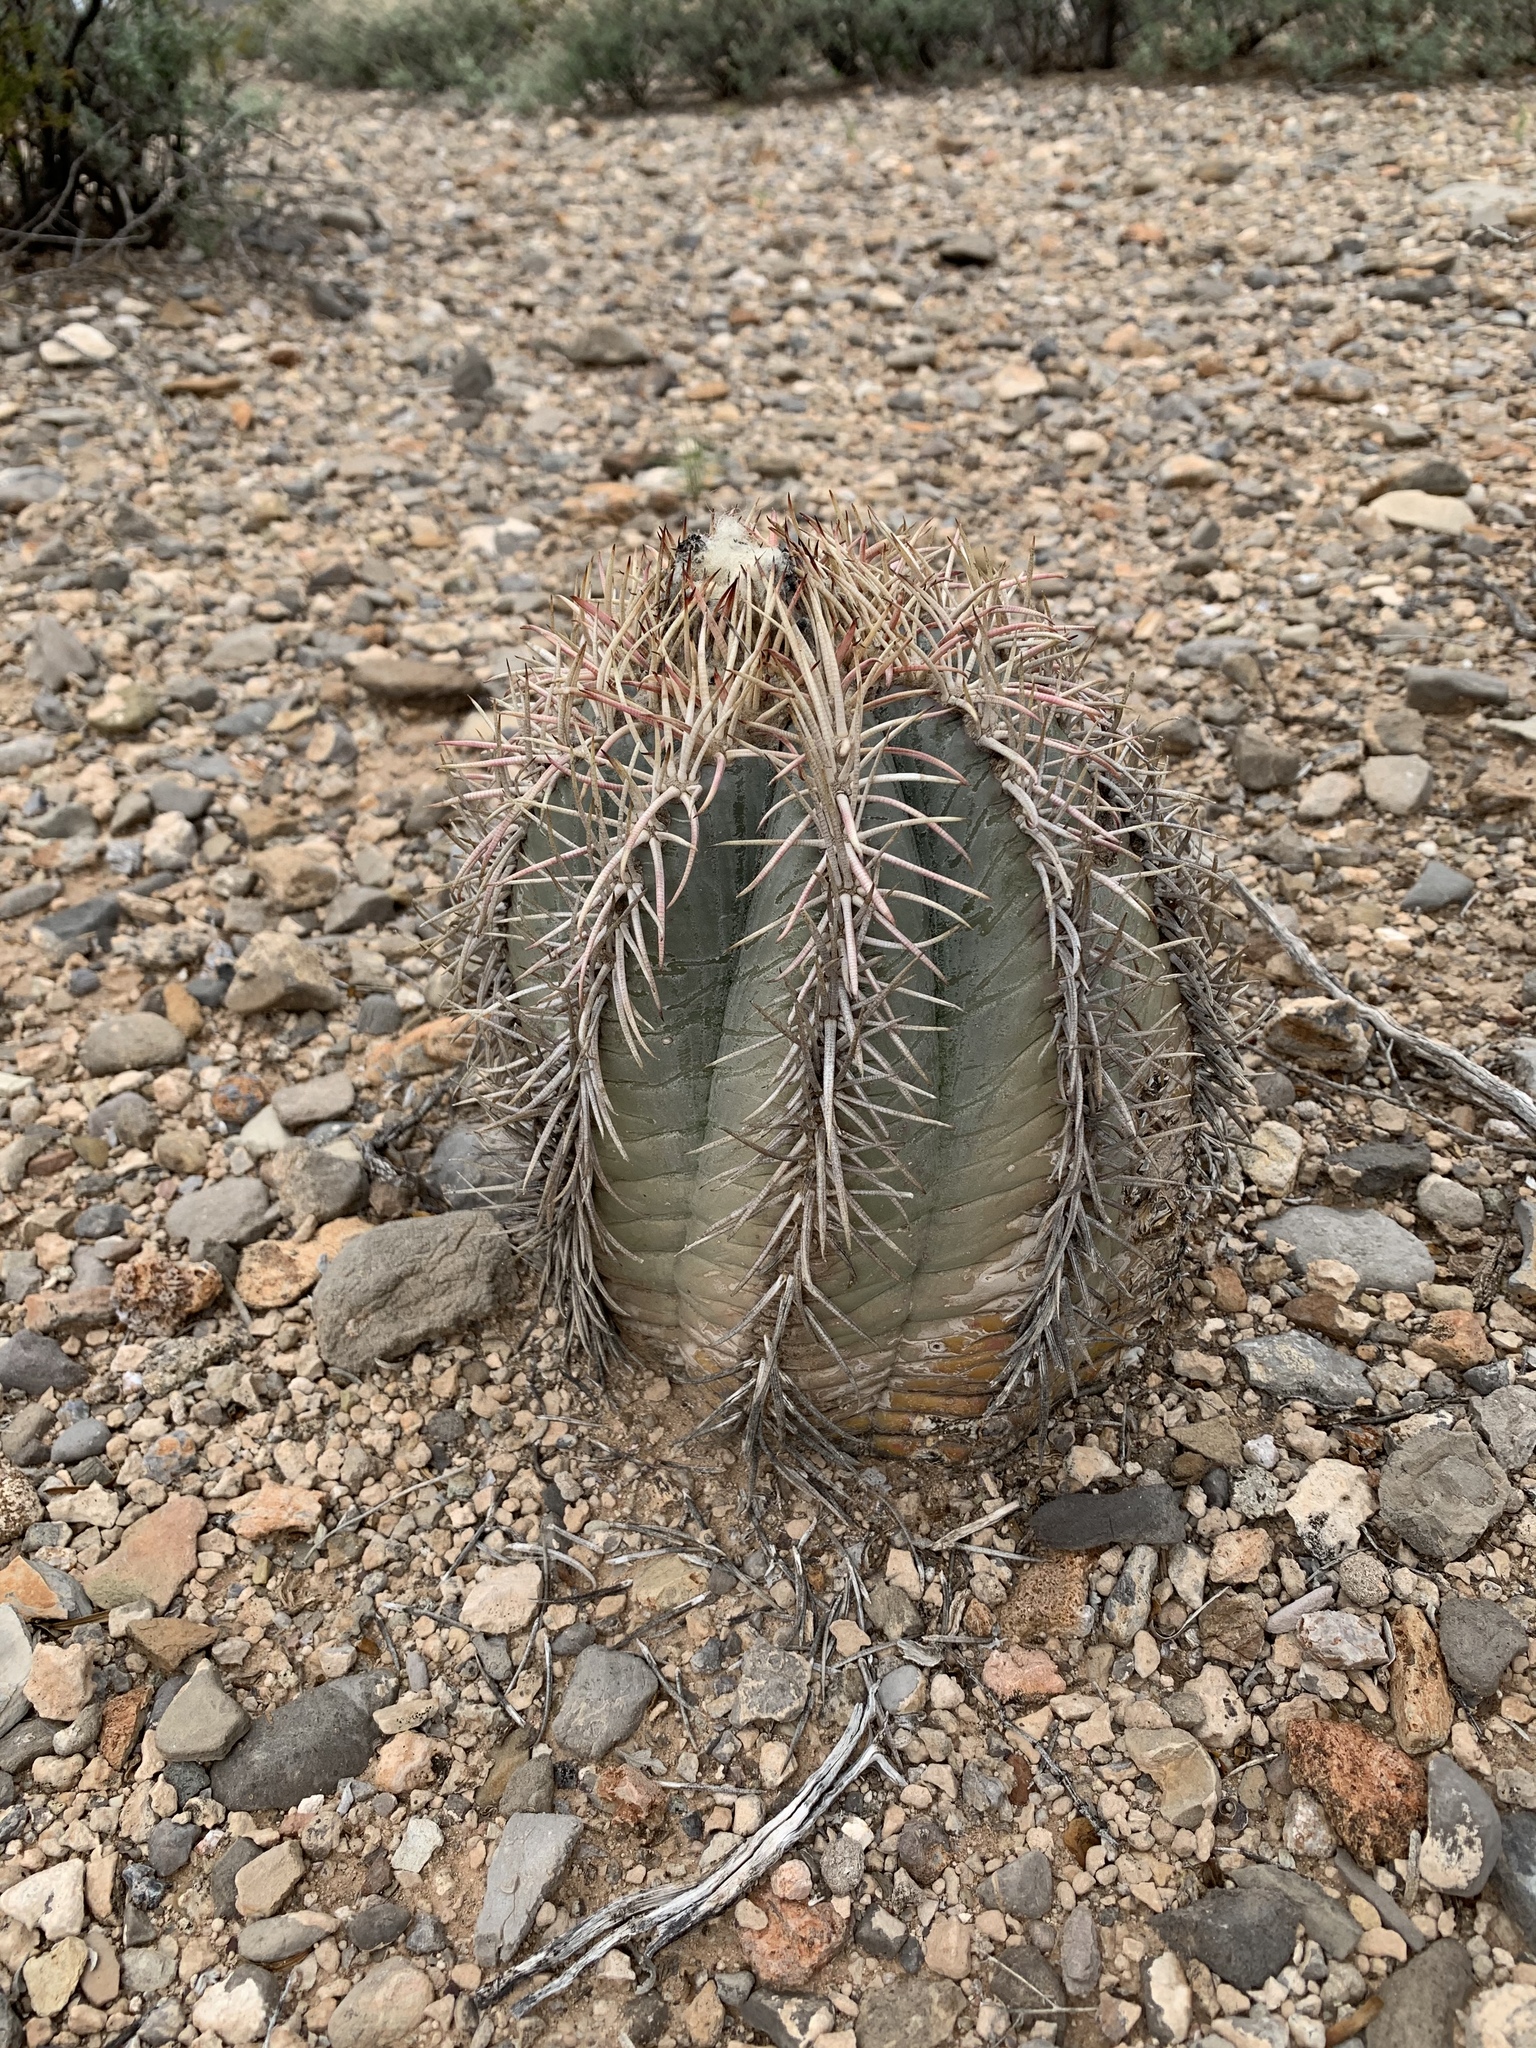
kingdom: Plantae
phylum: Tracheophyta
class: Magnoliopsida
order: Caryophyllales
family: Cactaceae
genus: Echinocactus
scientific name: Echinocactus horizonthalonius
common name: Devilshead
